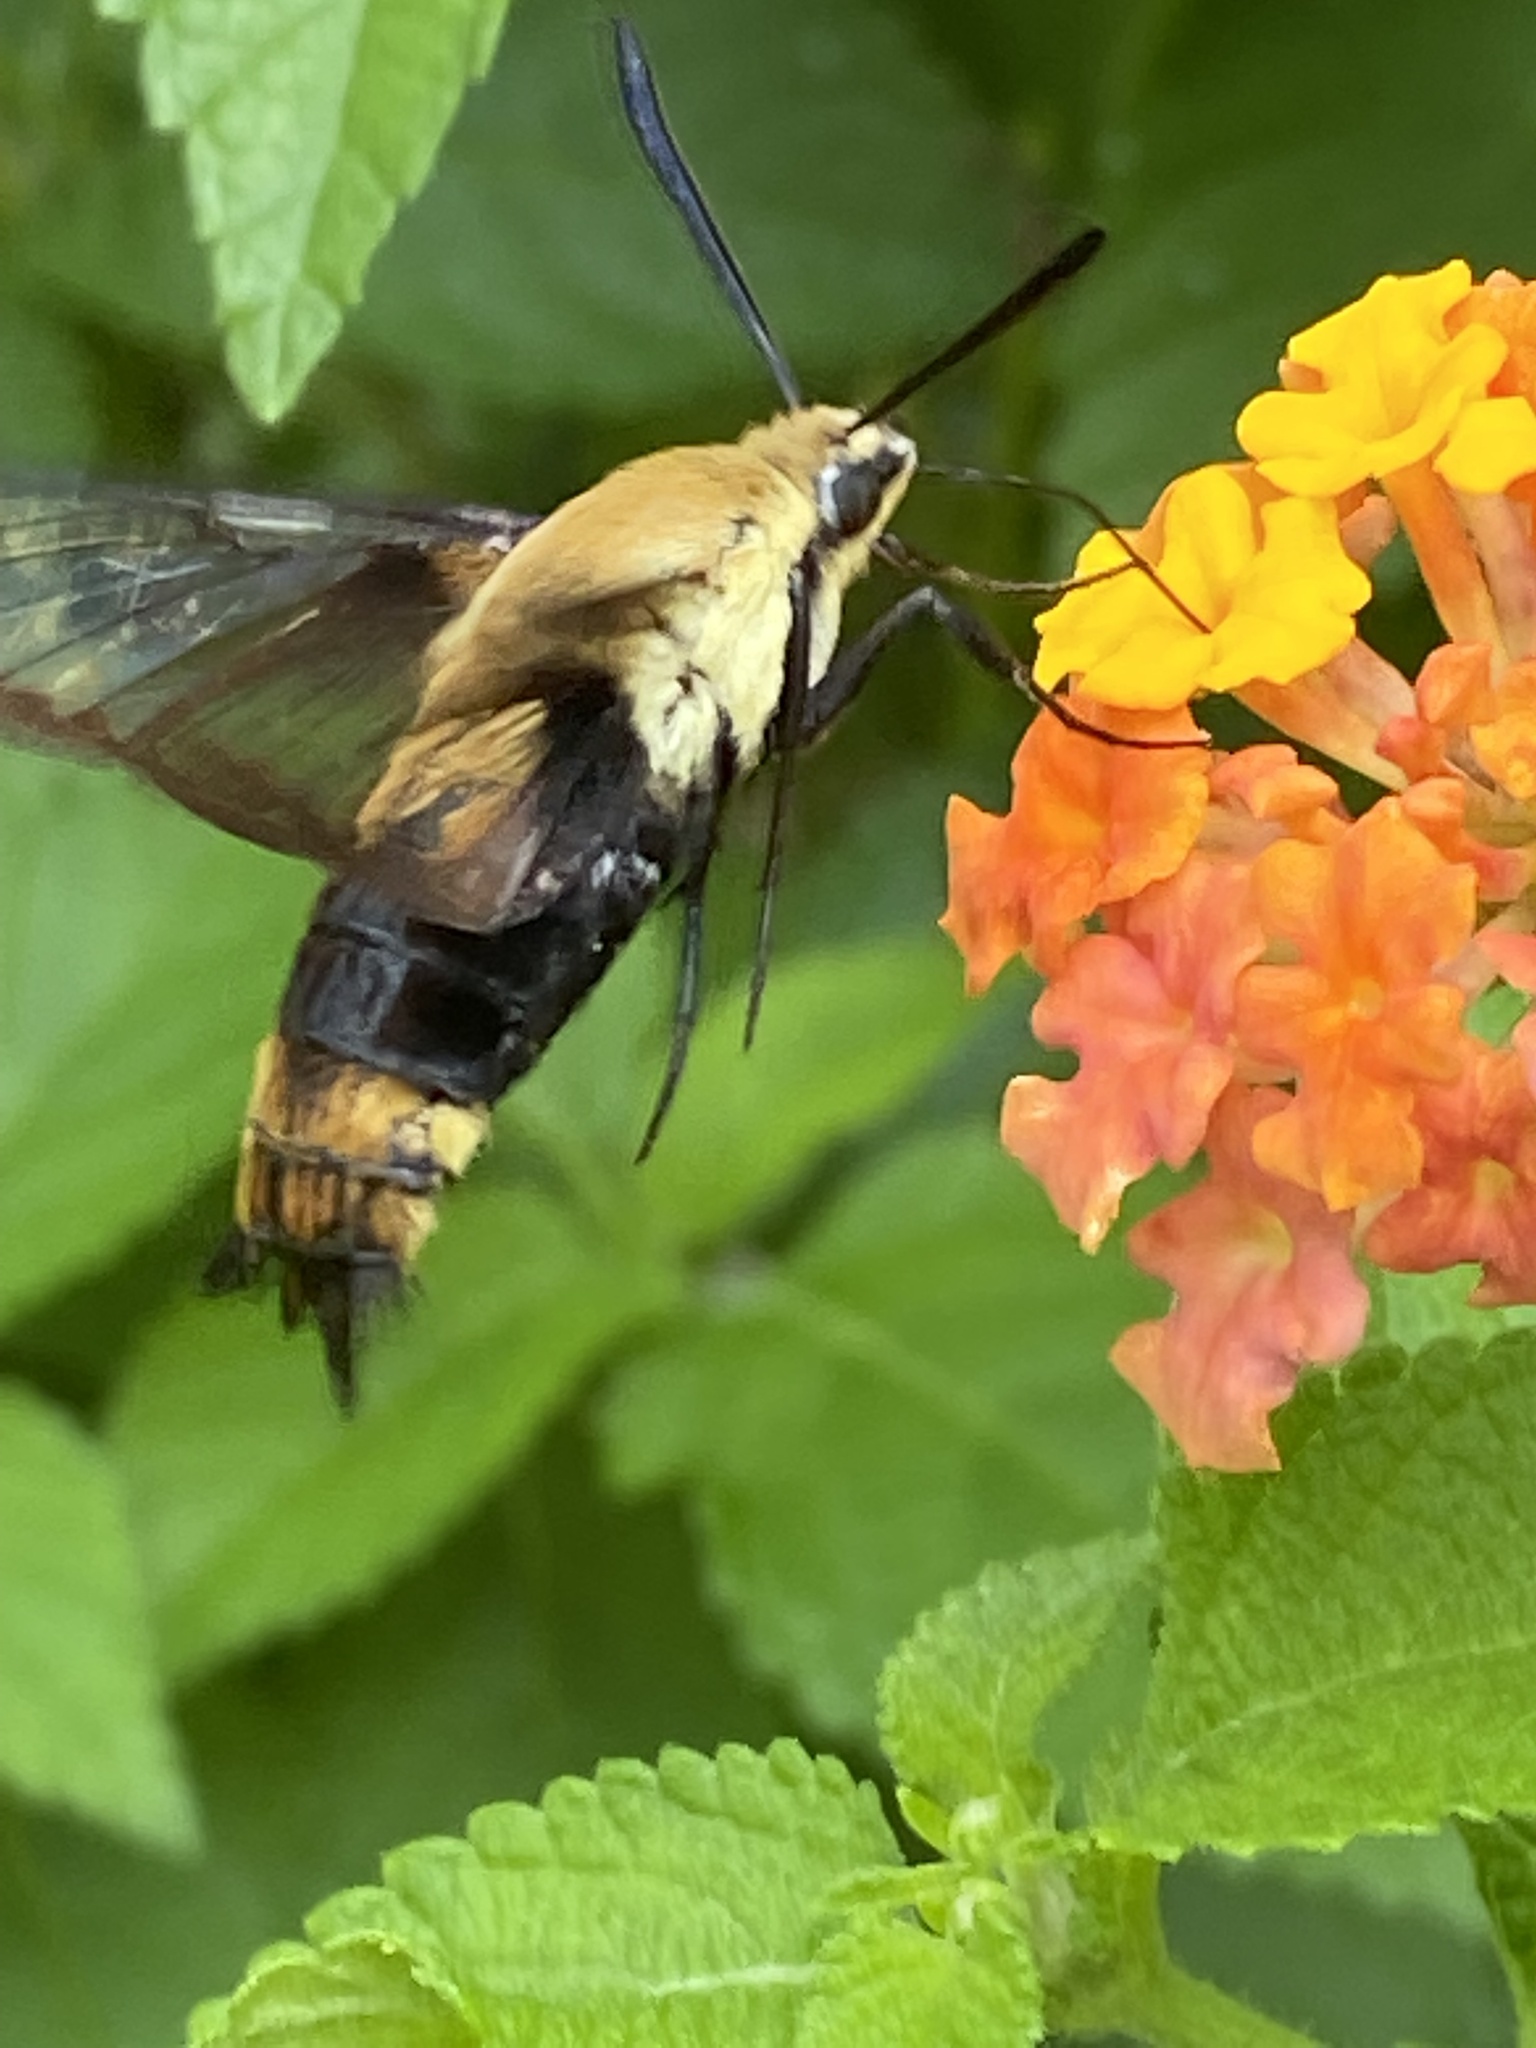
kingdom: Animalia
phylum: Arthropoda
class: Insecta
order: Lepidoptera
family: Sphingidae
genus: Hemaris
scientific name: Hemaris diffinis
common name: Bumblebee moth
